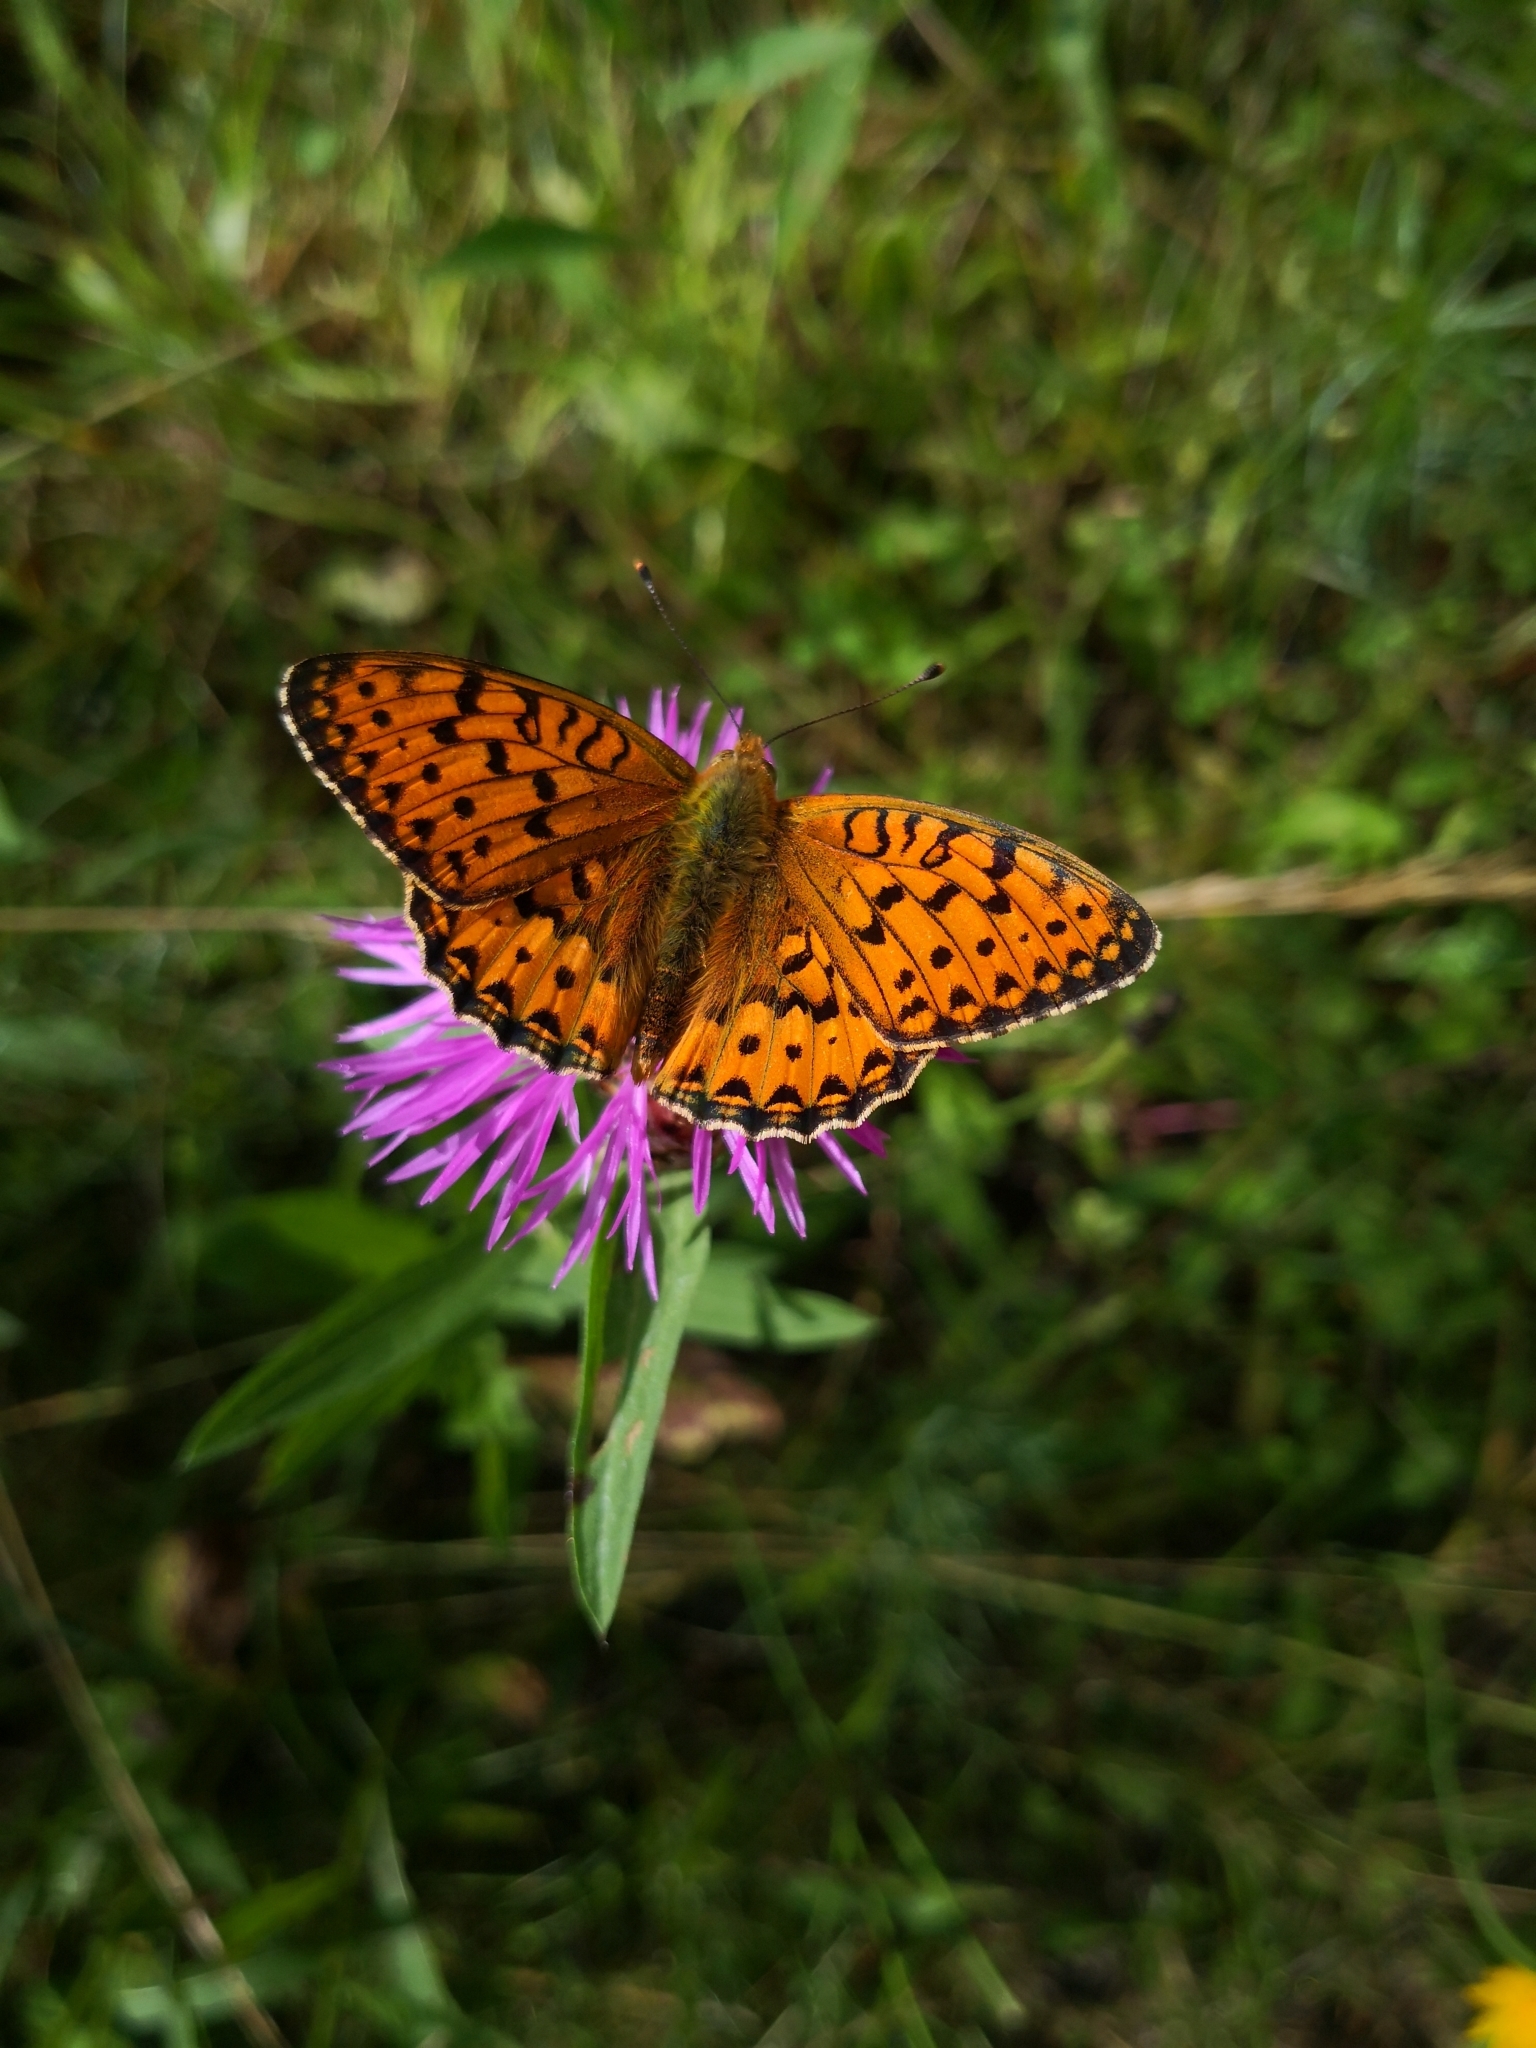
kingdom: Animalia
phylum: Arthropoda
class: Insecta
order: Lepidoptera
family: Nymphalidae
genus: Speyeria
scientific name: Speyeria aglaja
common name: Dark green fritillary
